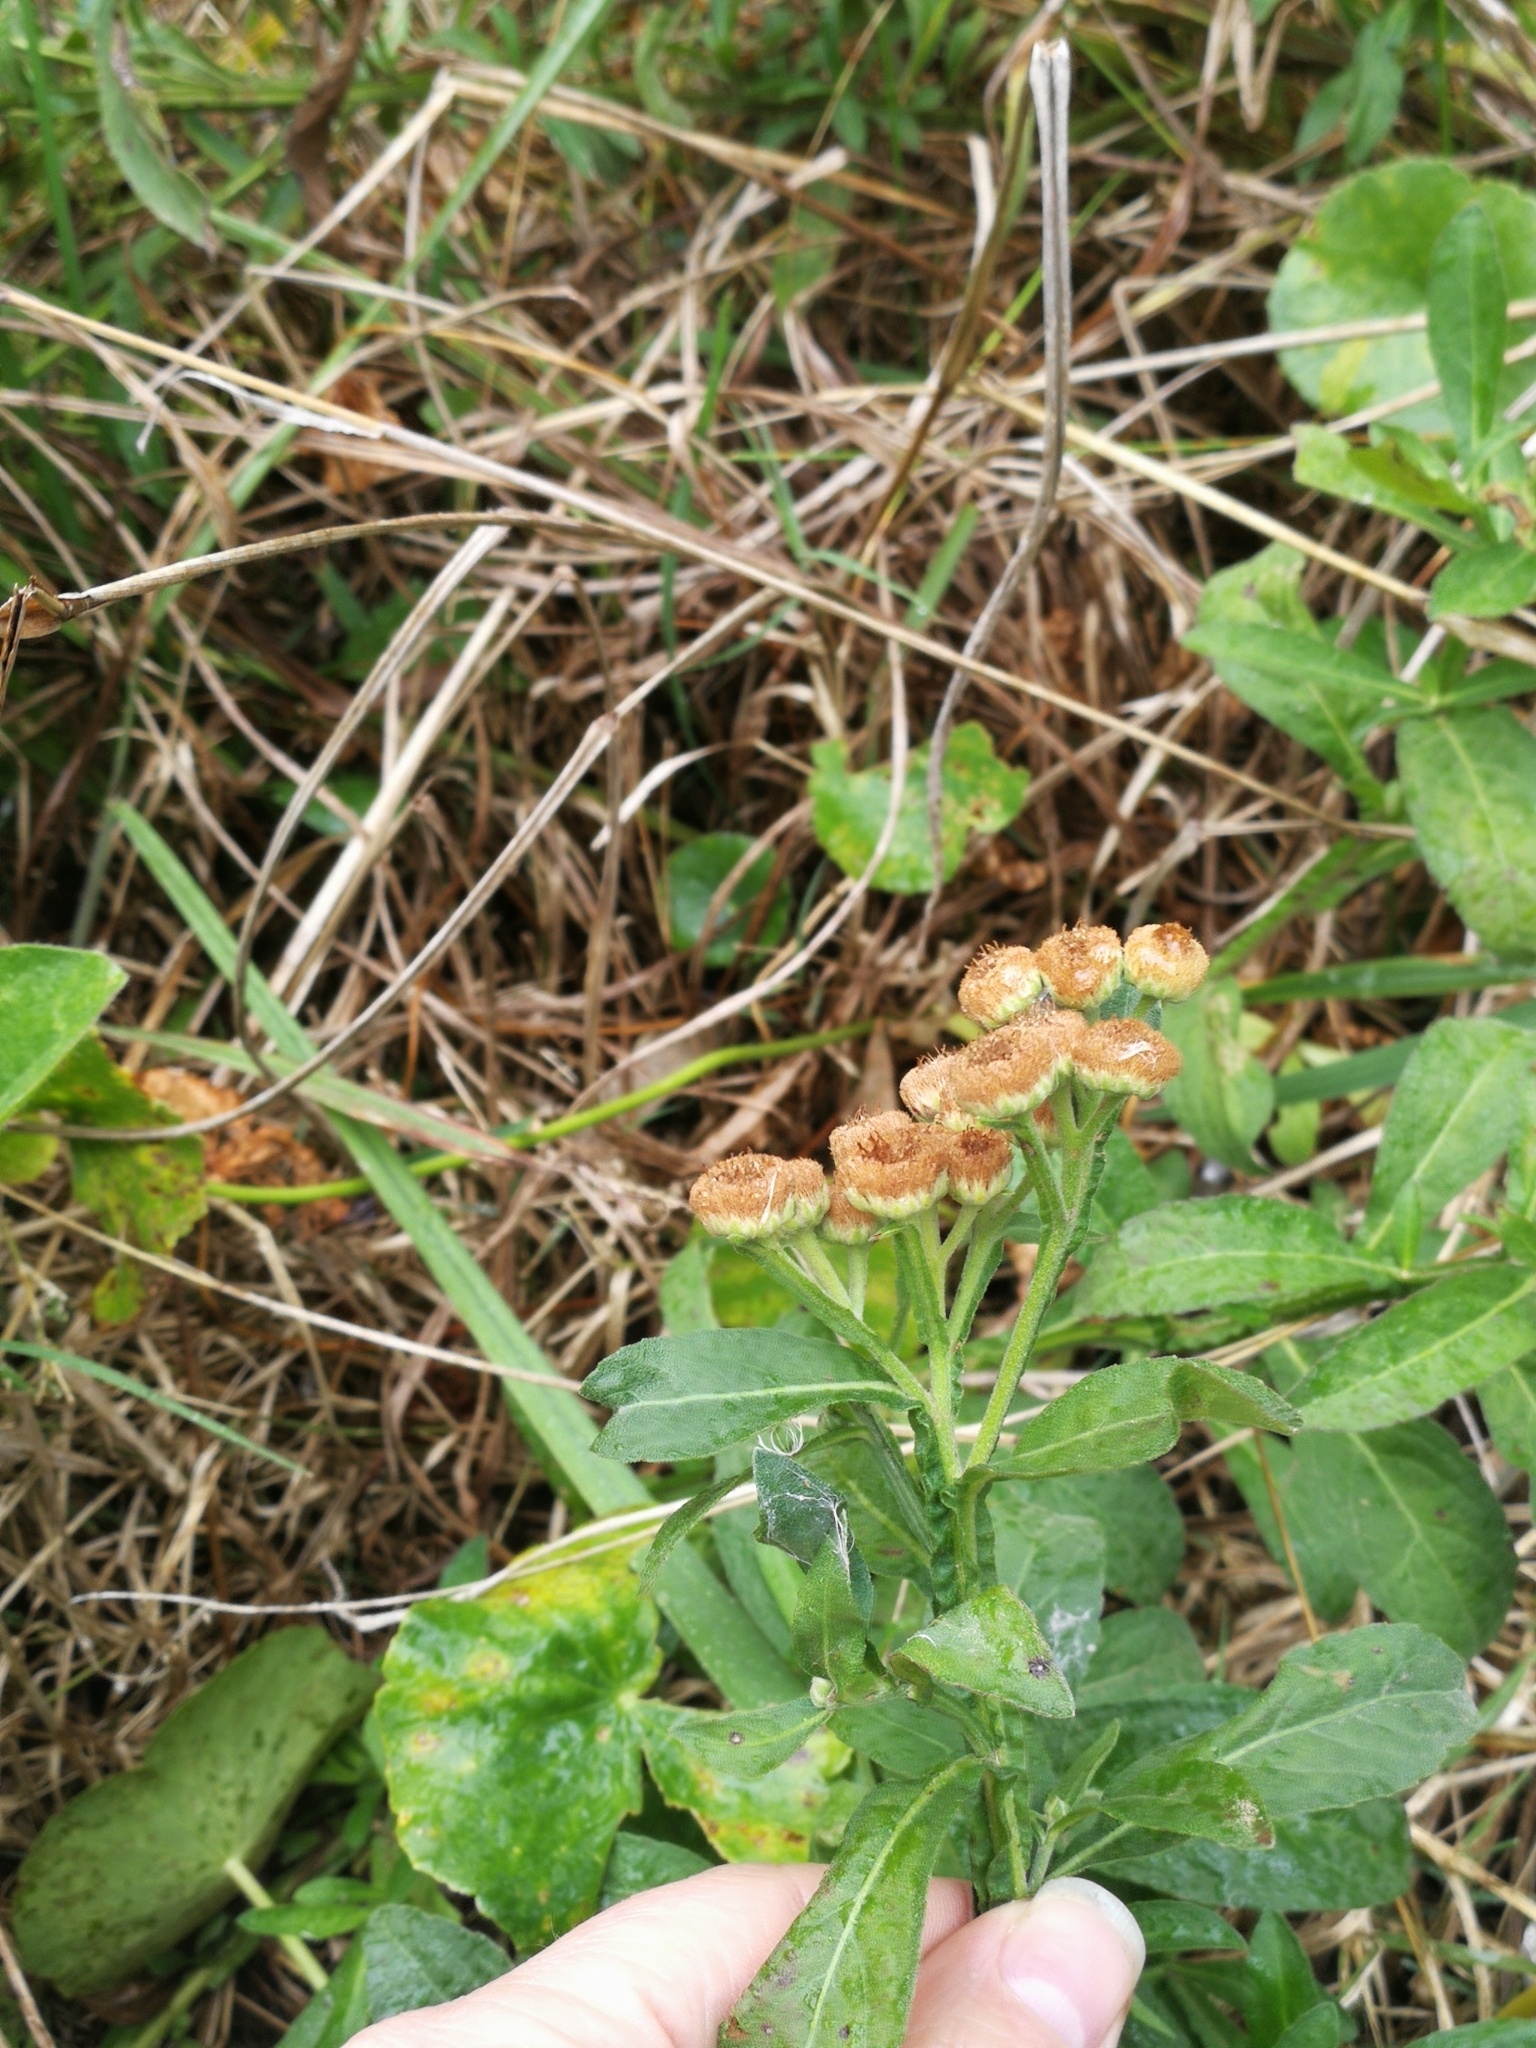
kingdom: Plantae
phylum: Tracheophyta
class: Magnoliopsida
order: Asterales
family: Asteraceae
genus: Pluchea
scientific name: Pluchea sagittalis
